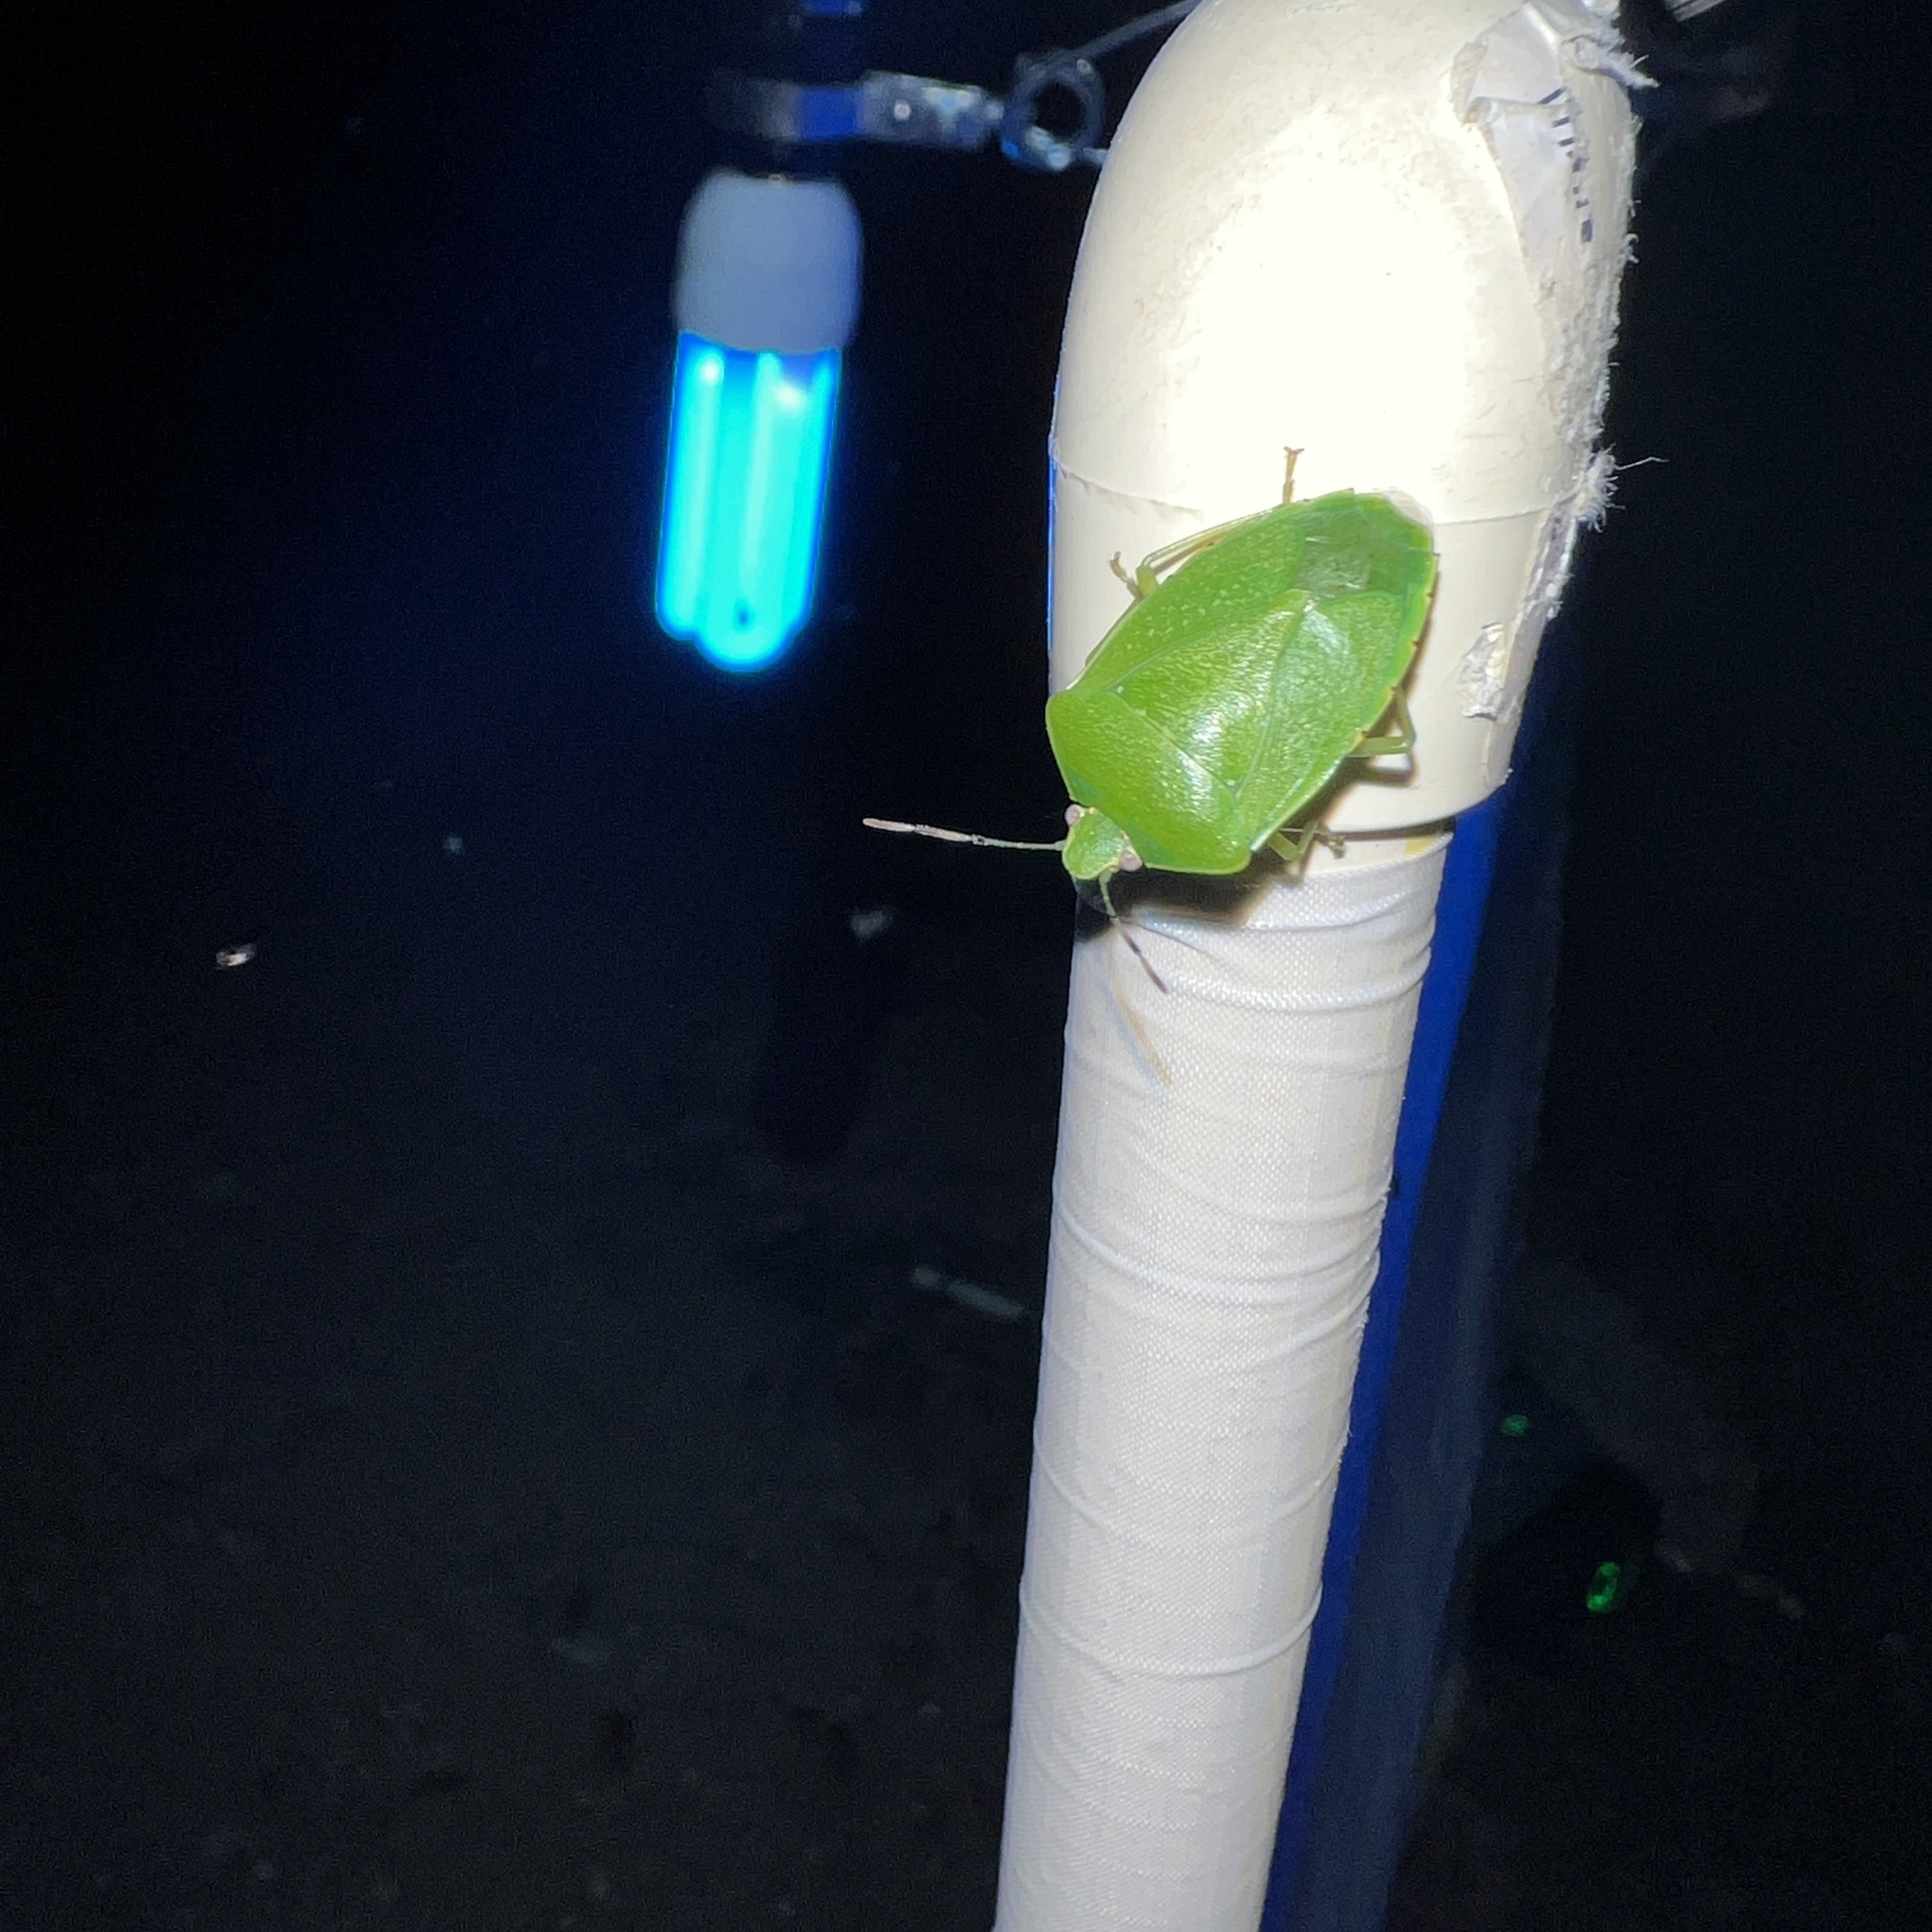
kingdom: Animalia
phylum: Arthropoda
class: Insecta
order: Hemiptera
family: Pentatomidae
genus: Chinavia
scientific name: Chinavia hilaris
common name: Green stink bug
